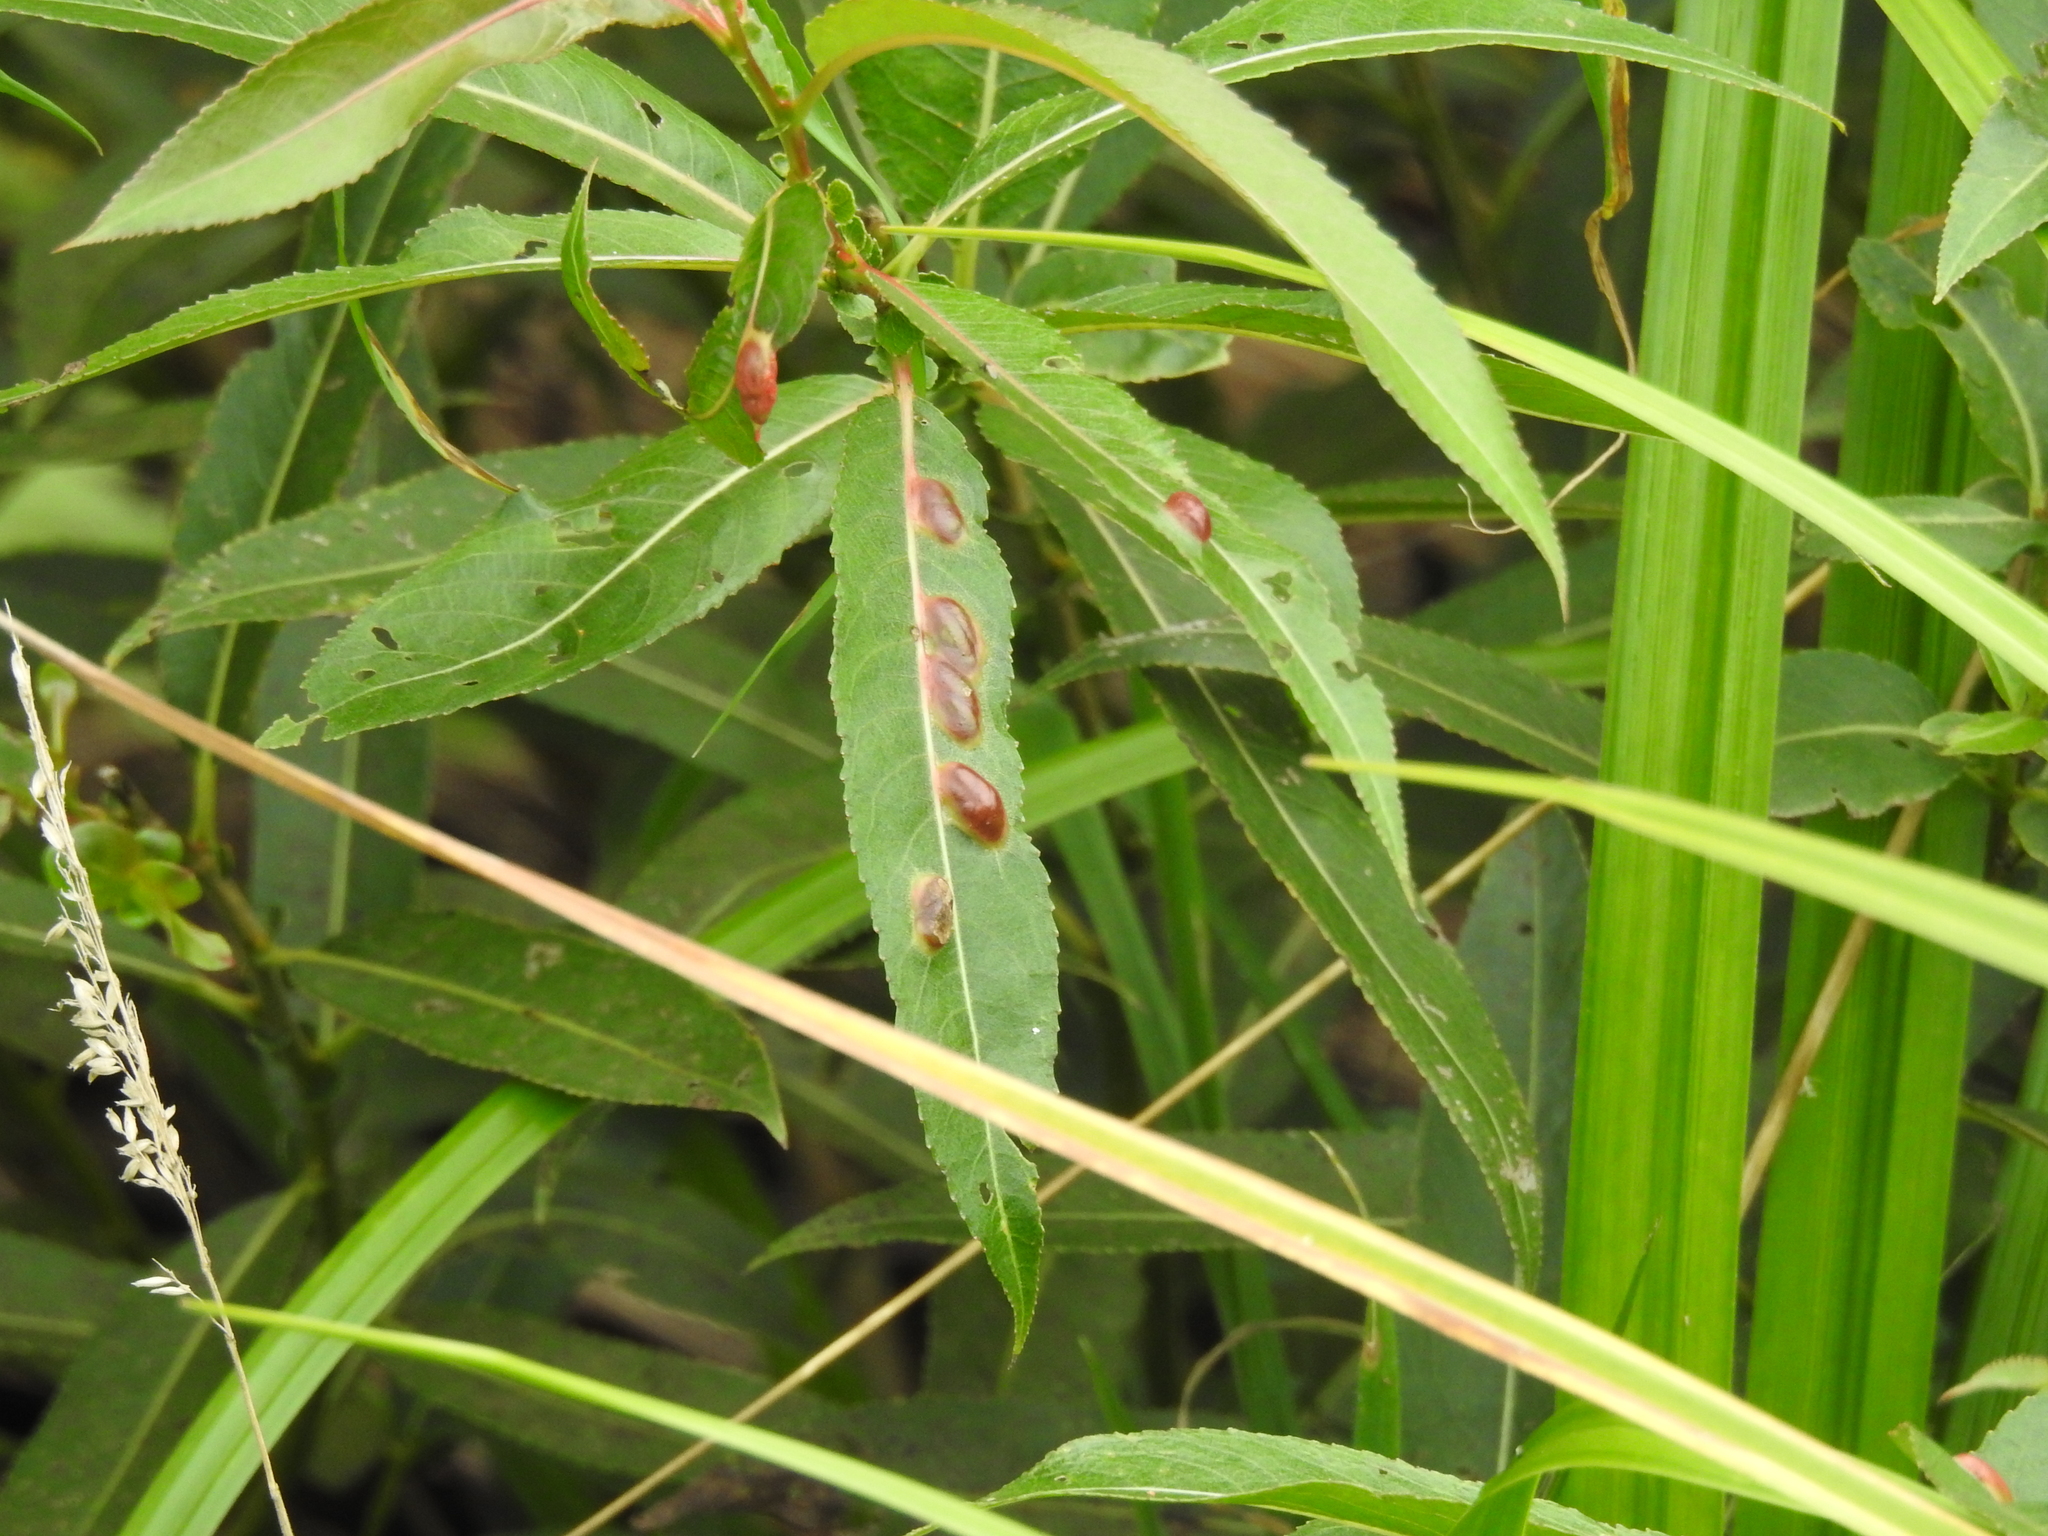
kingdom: Animalia
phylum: Arthropoda
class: Insecta
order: Hymenoptera
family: Tenthredinidae
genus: Pontania
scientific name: Pontania proxima
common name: Common sawfly
